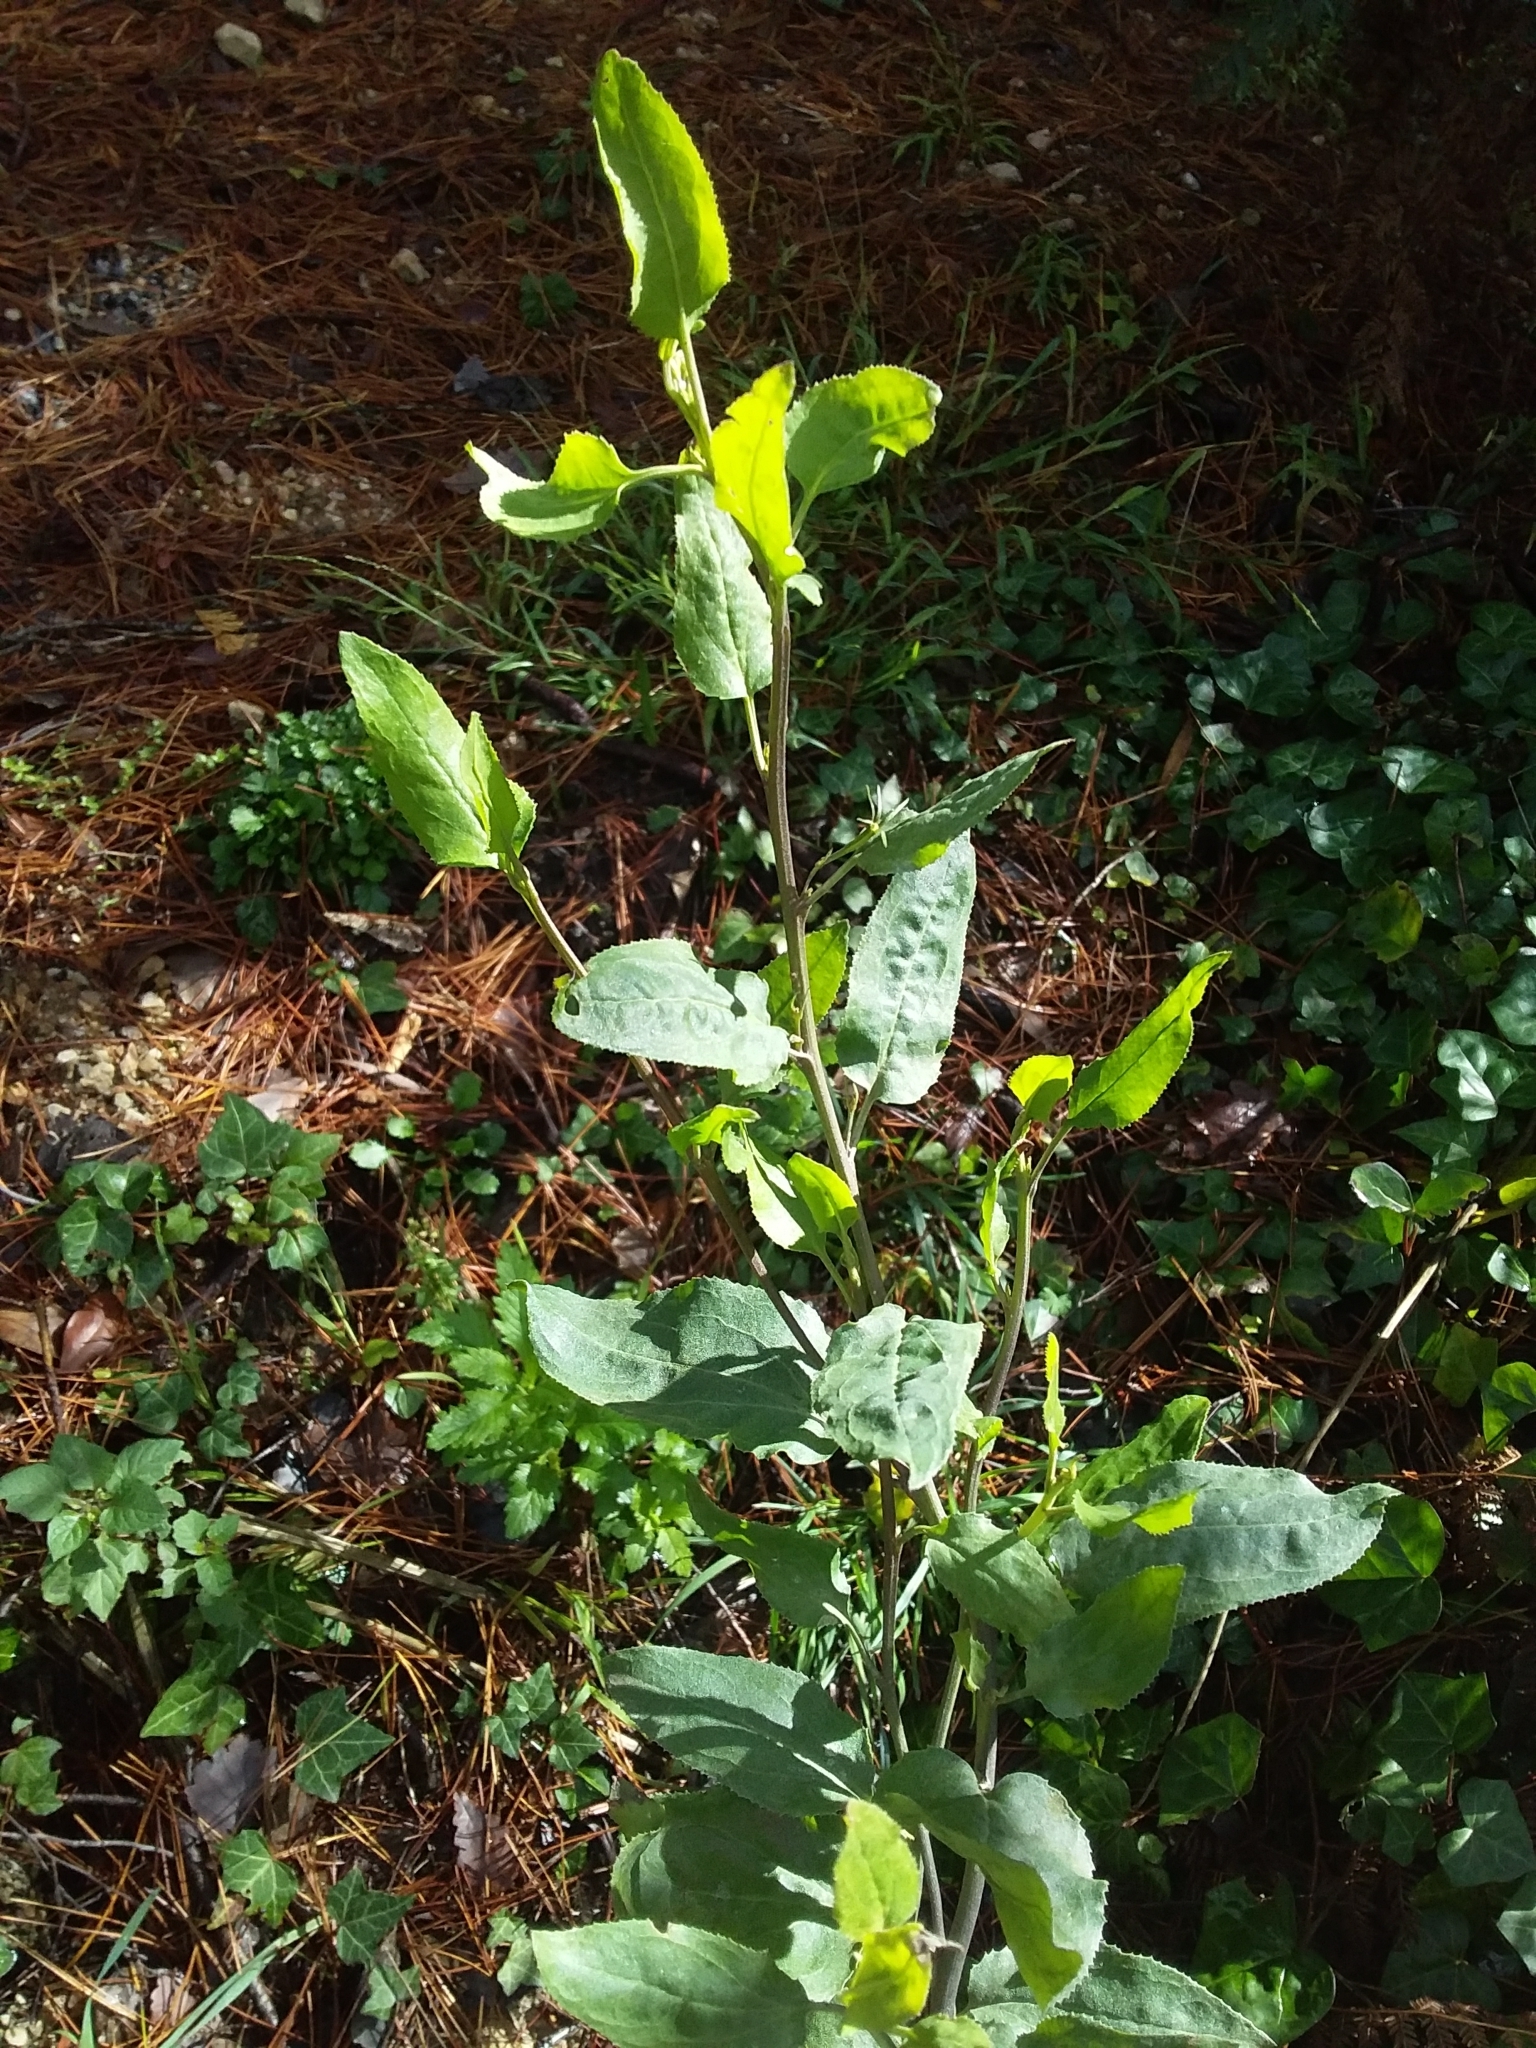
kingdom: Plantae
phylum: Tracheophyta
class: Magnoliopsida
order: Asterales
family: Goodeniaceae
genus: Goodenia
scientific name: Goodenia ovata
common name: Hop goodenia
